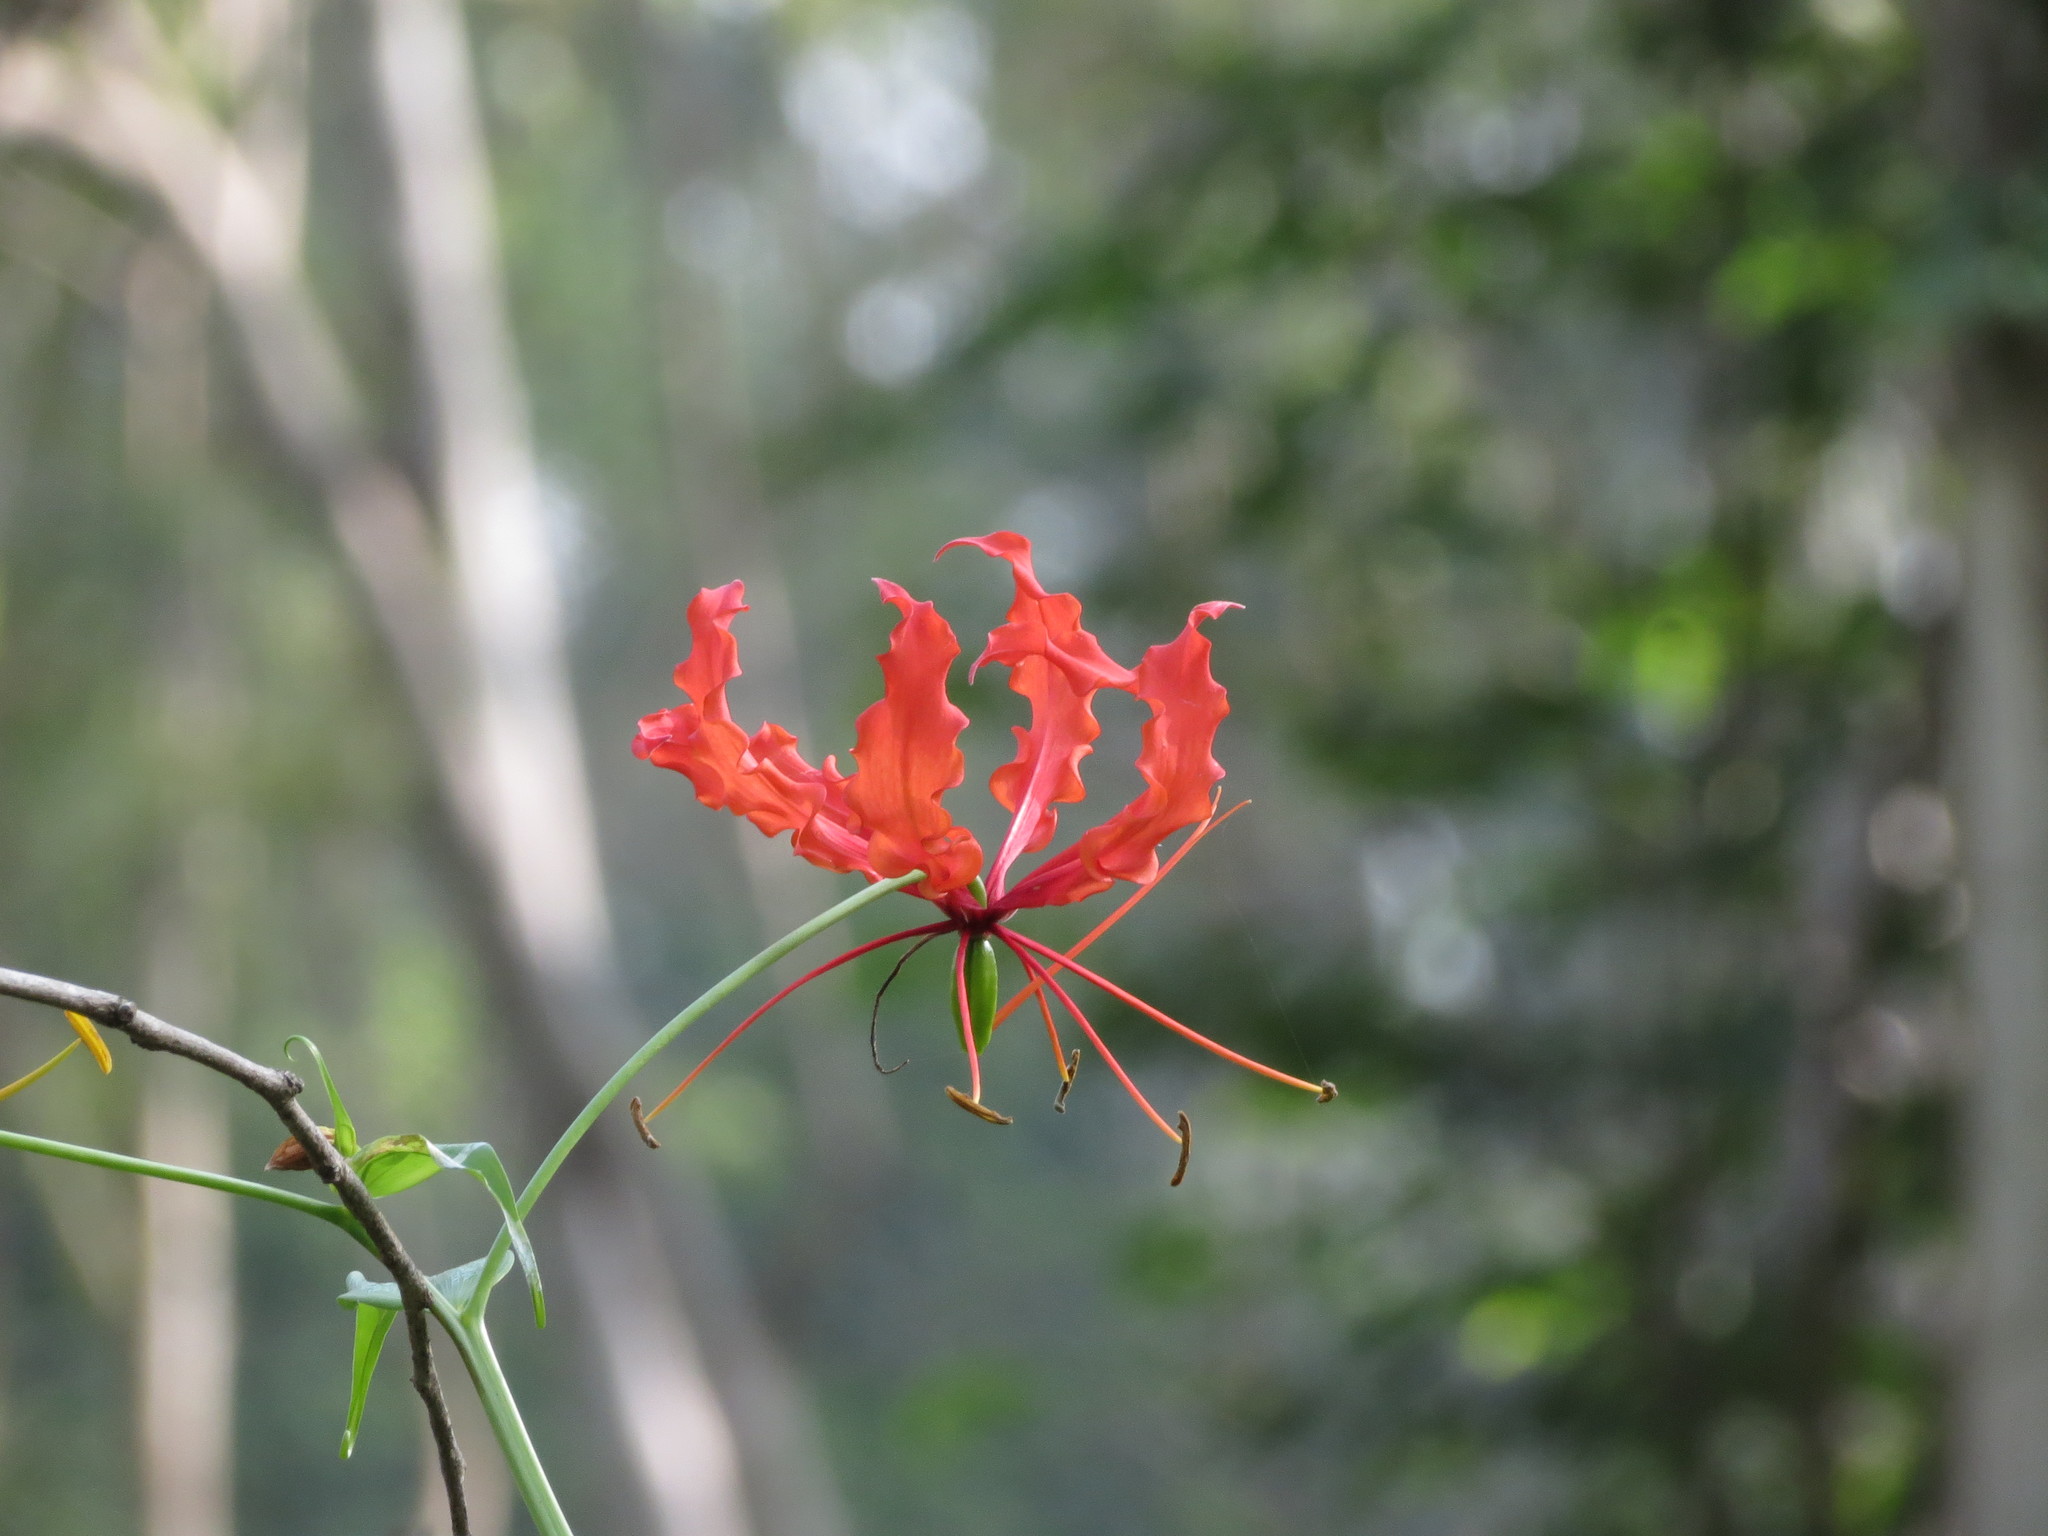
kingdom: Plantae
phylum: Tracheophyta
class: Liliopsida
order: Liliales
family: Colchicaceae
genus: Gloriosa
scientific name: Gloriosa superba
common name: Flame lily
